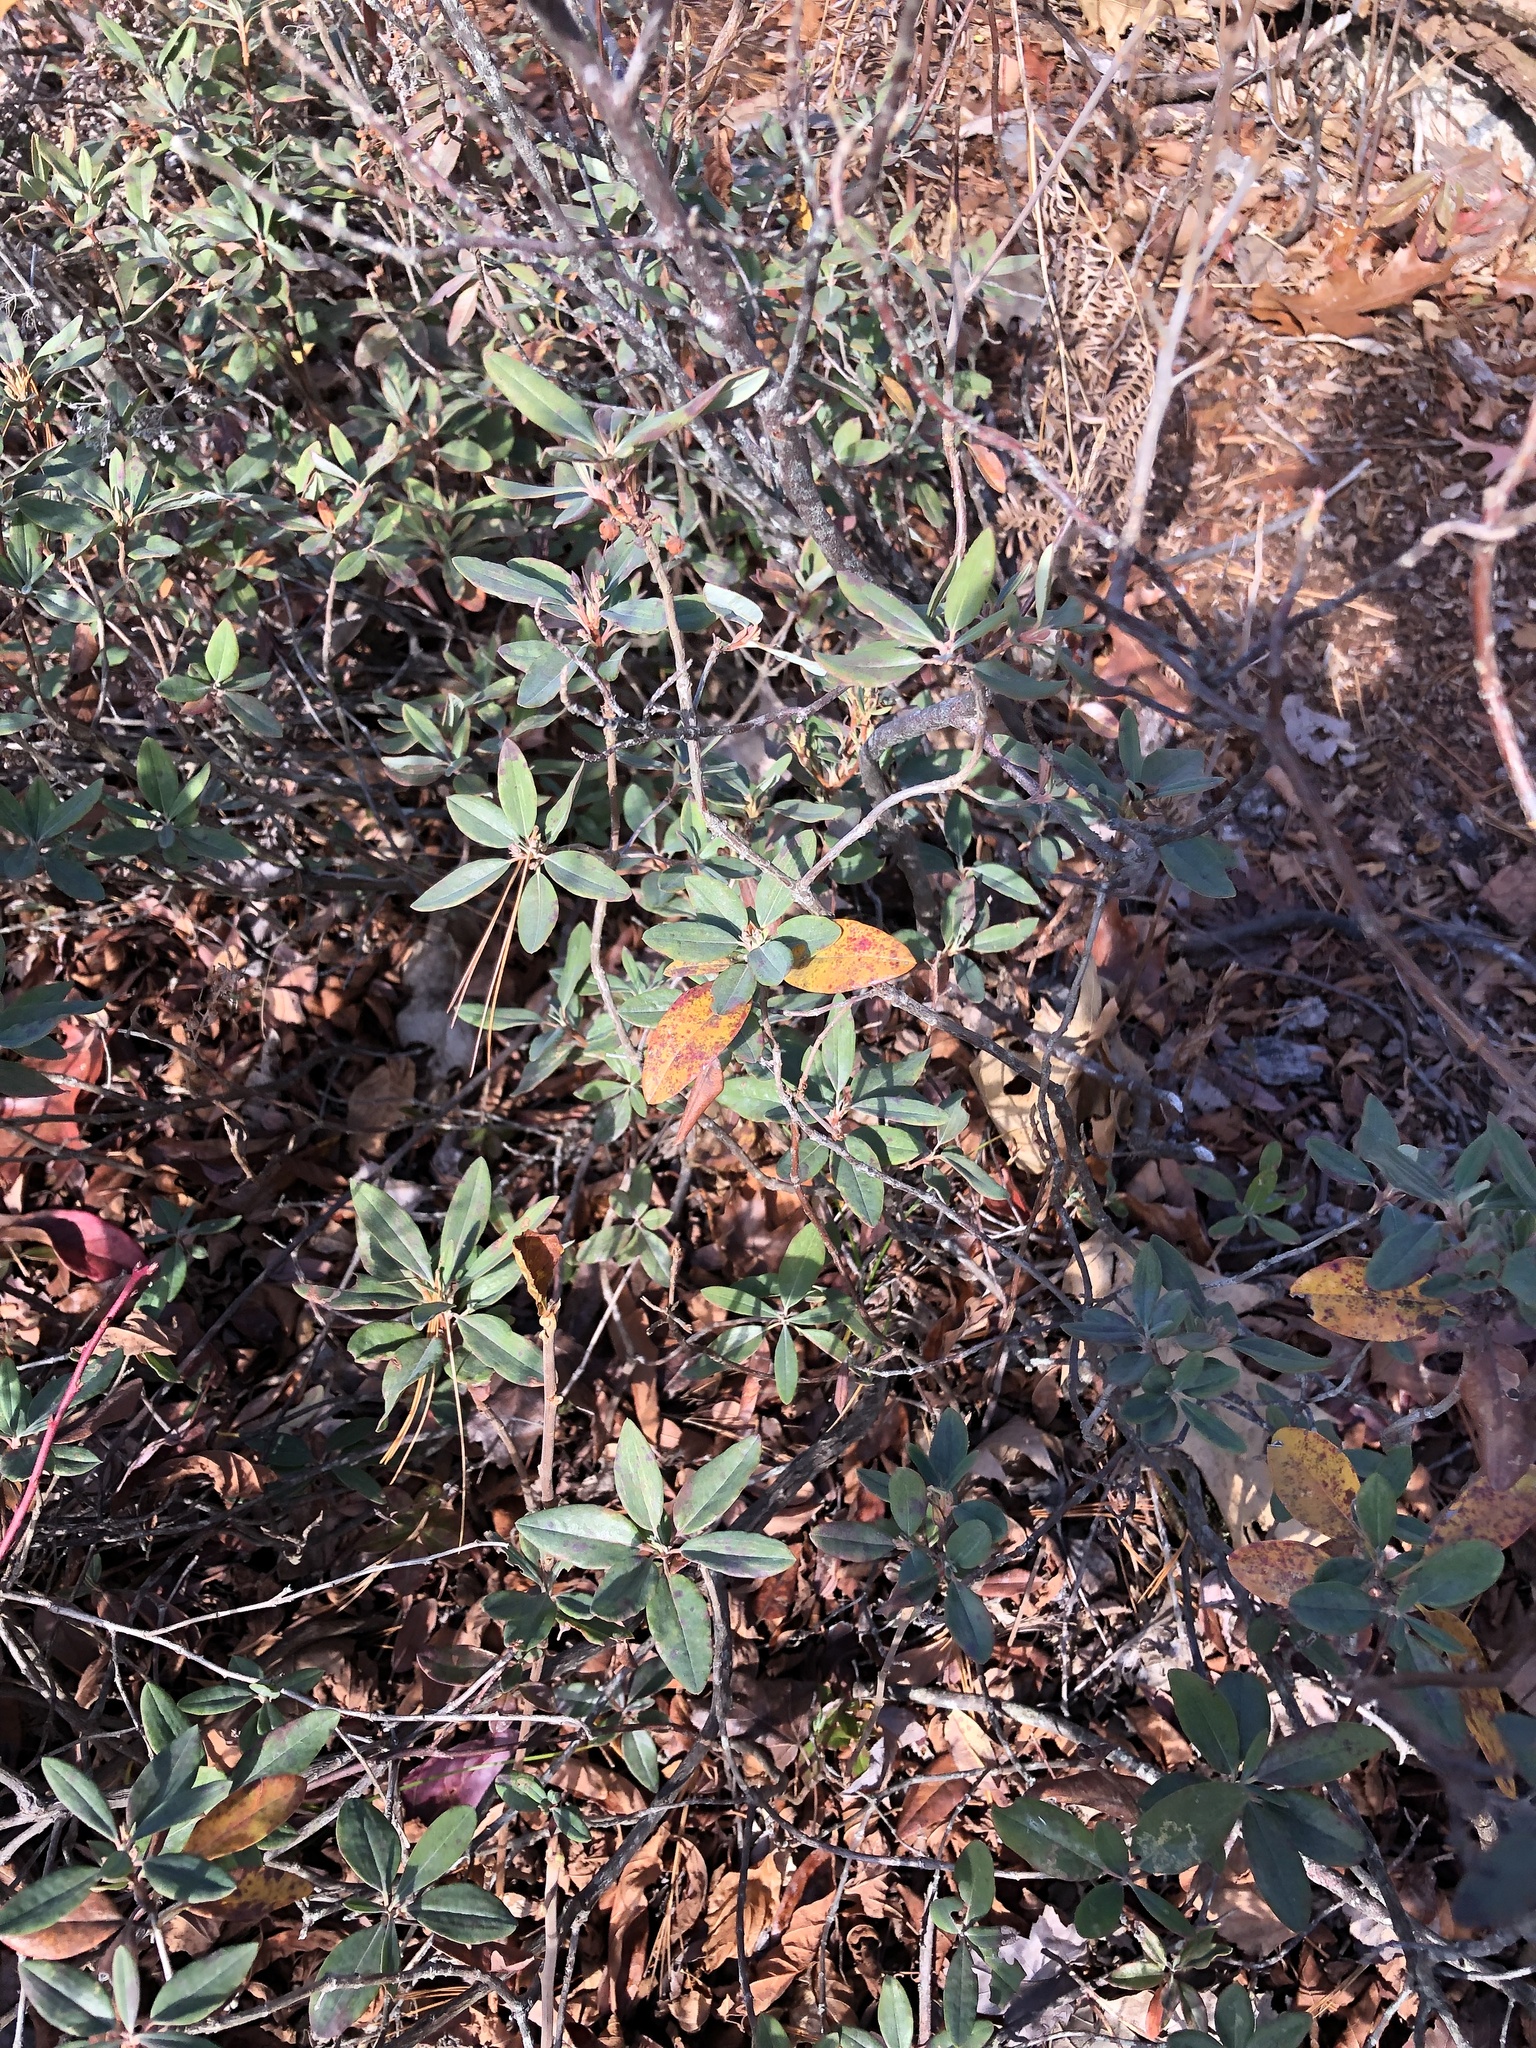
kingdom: Plantae
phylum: Tracheophyta
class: Magnoliopsida
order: Ericales
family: Ericaceae
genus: Kalmia
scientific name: Kalmia angustifolia
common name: Sheep-laurel
